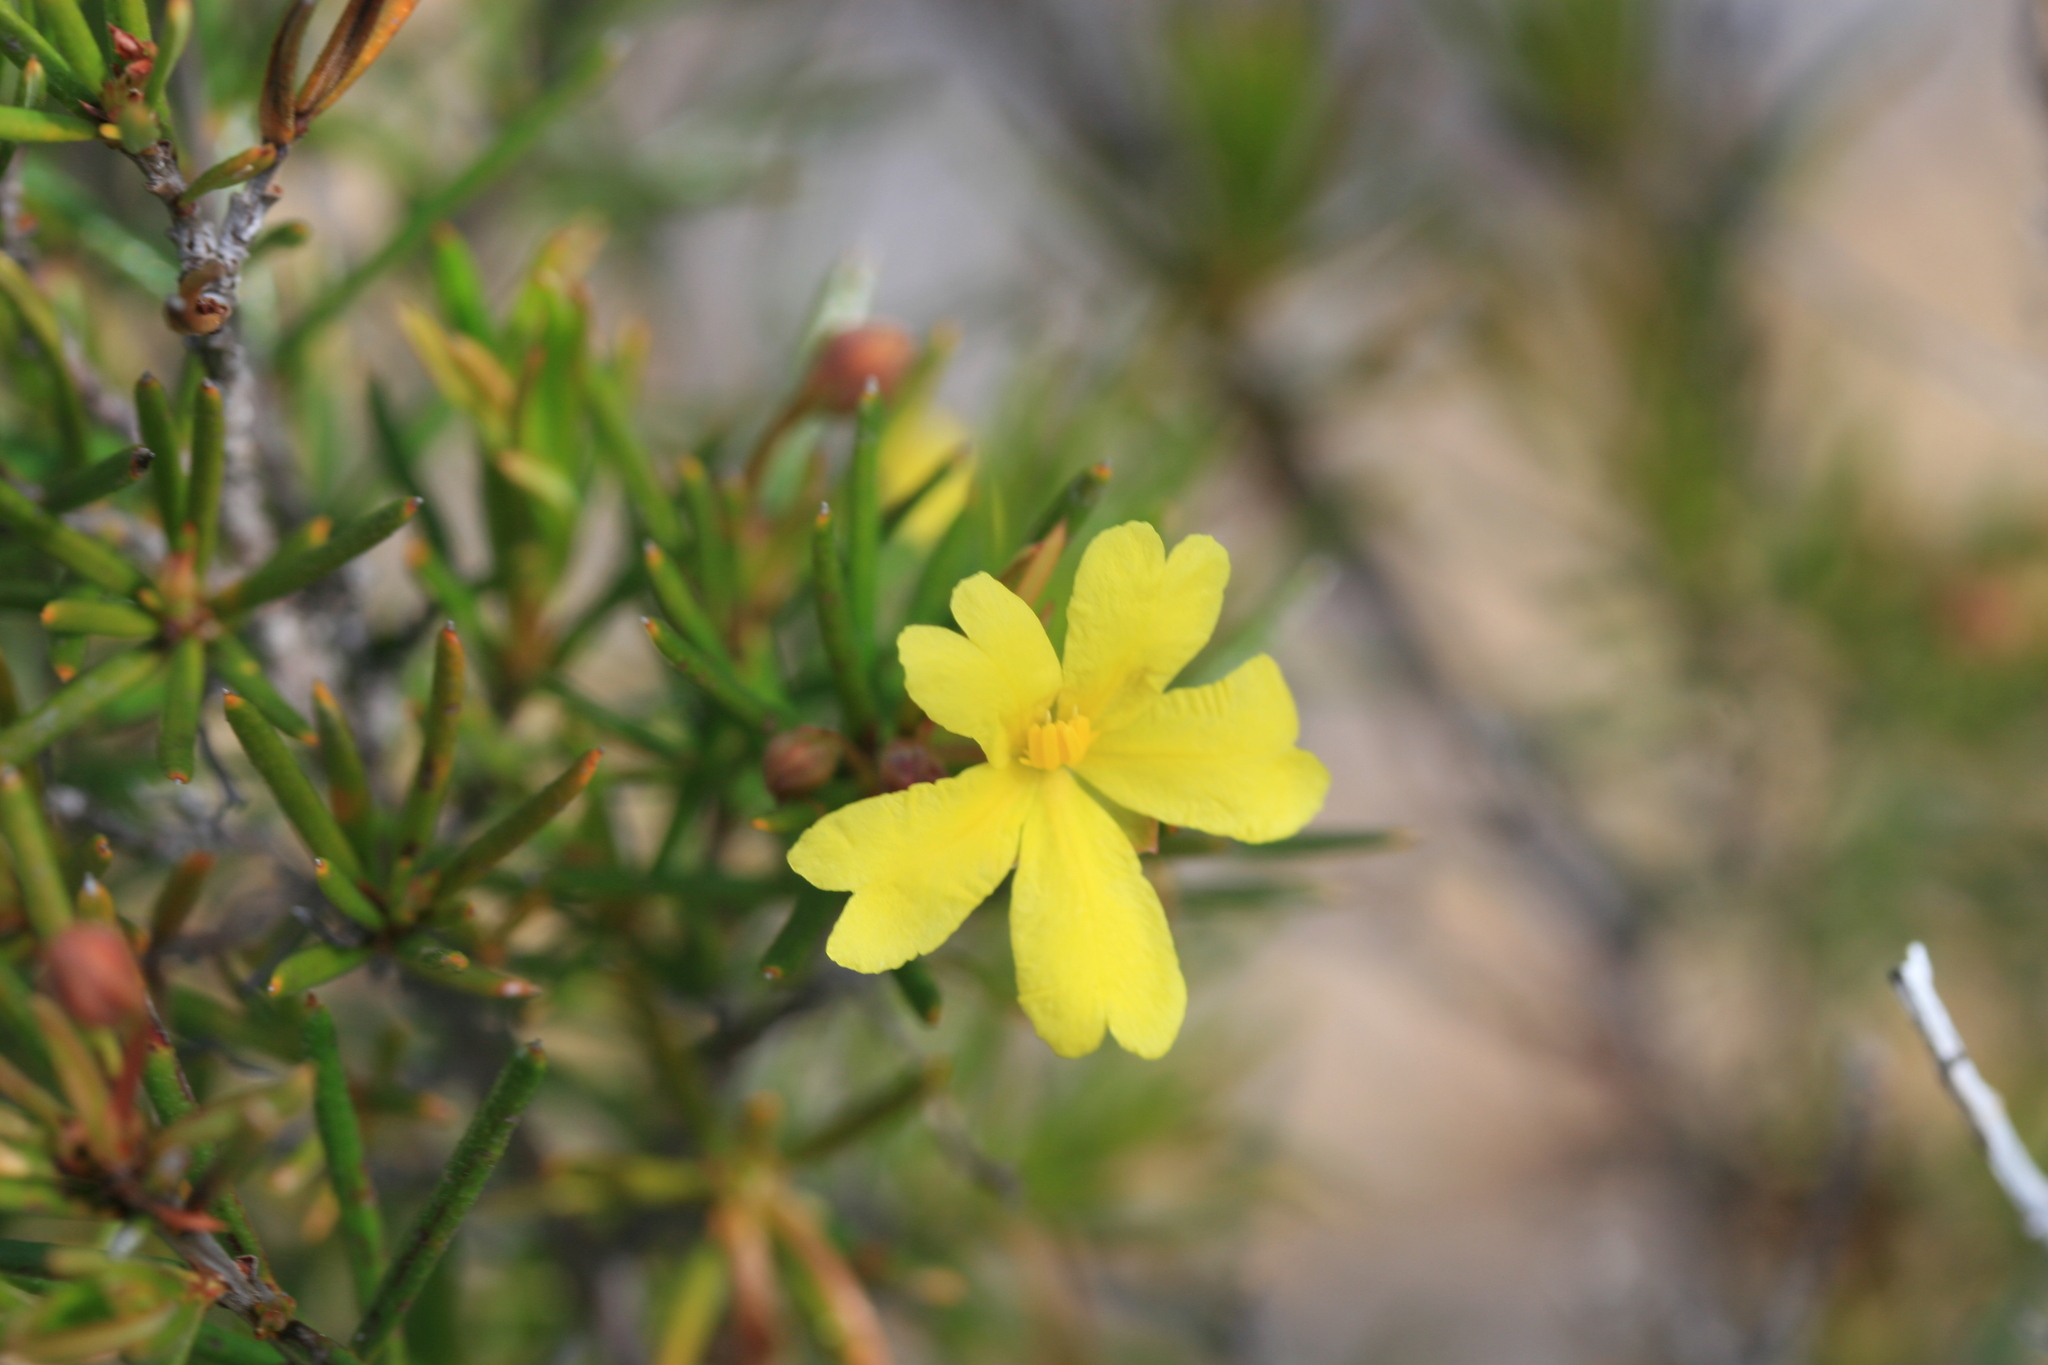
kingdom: Plantae
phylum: Tracheophyta
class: Magnoliopsida
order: Dilleniales
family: Dilleniaceae
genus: Hibbertia
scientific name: Hibbertia
